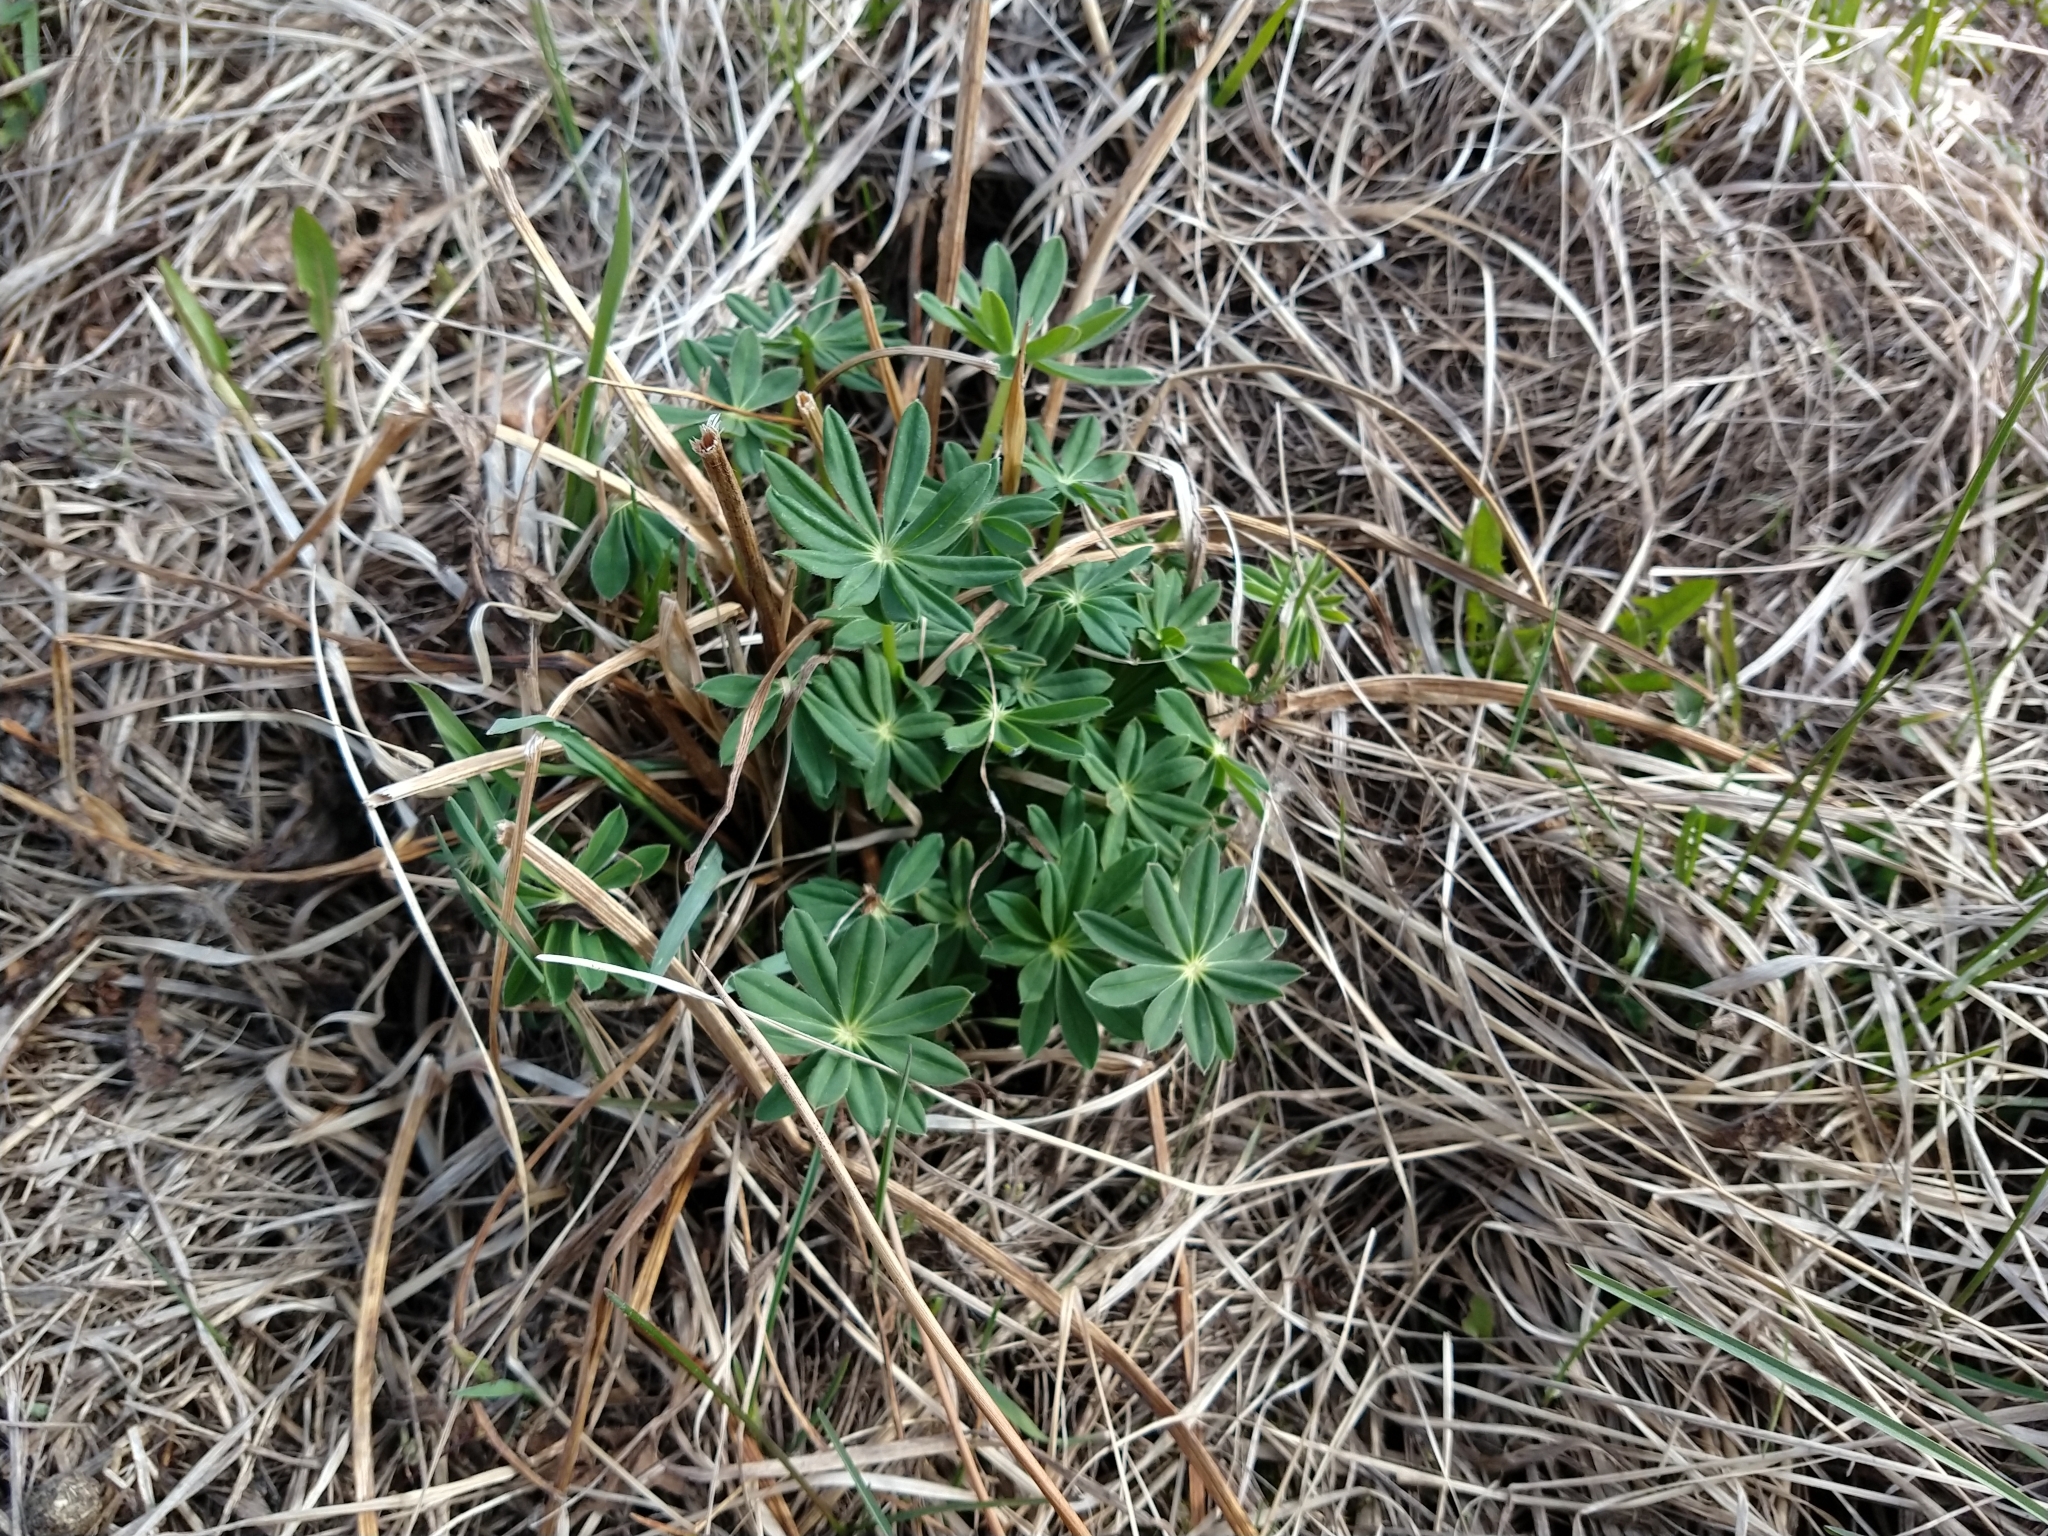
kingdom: Plantae
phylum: Tracheophyta
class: Magnoliopsida
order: Fabales
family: Fabaceae
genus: Lupinus
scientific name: Lupinus polyphyllus
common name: Garden lupin
